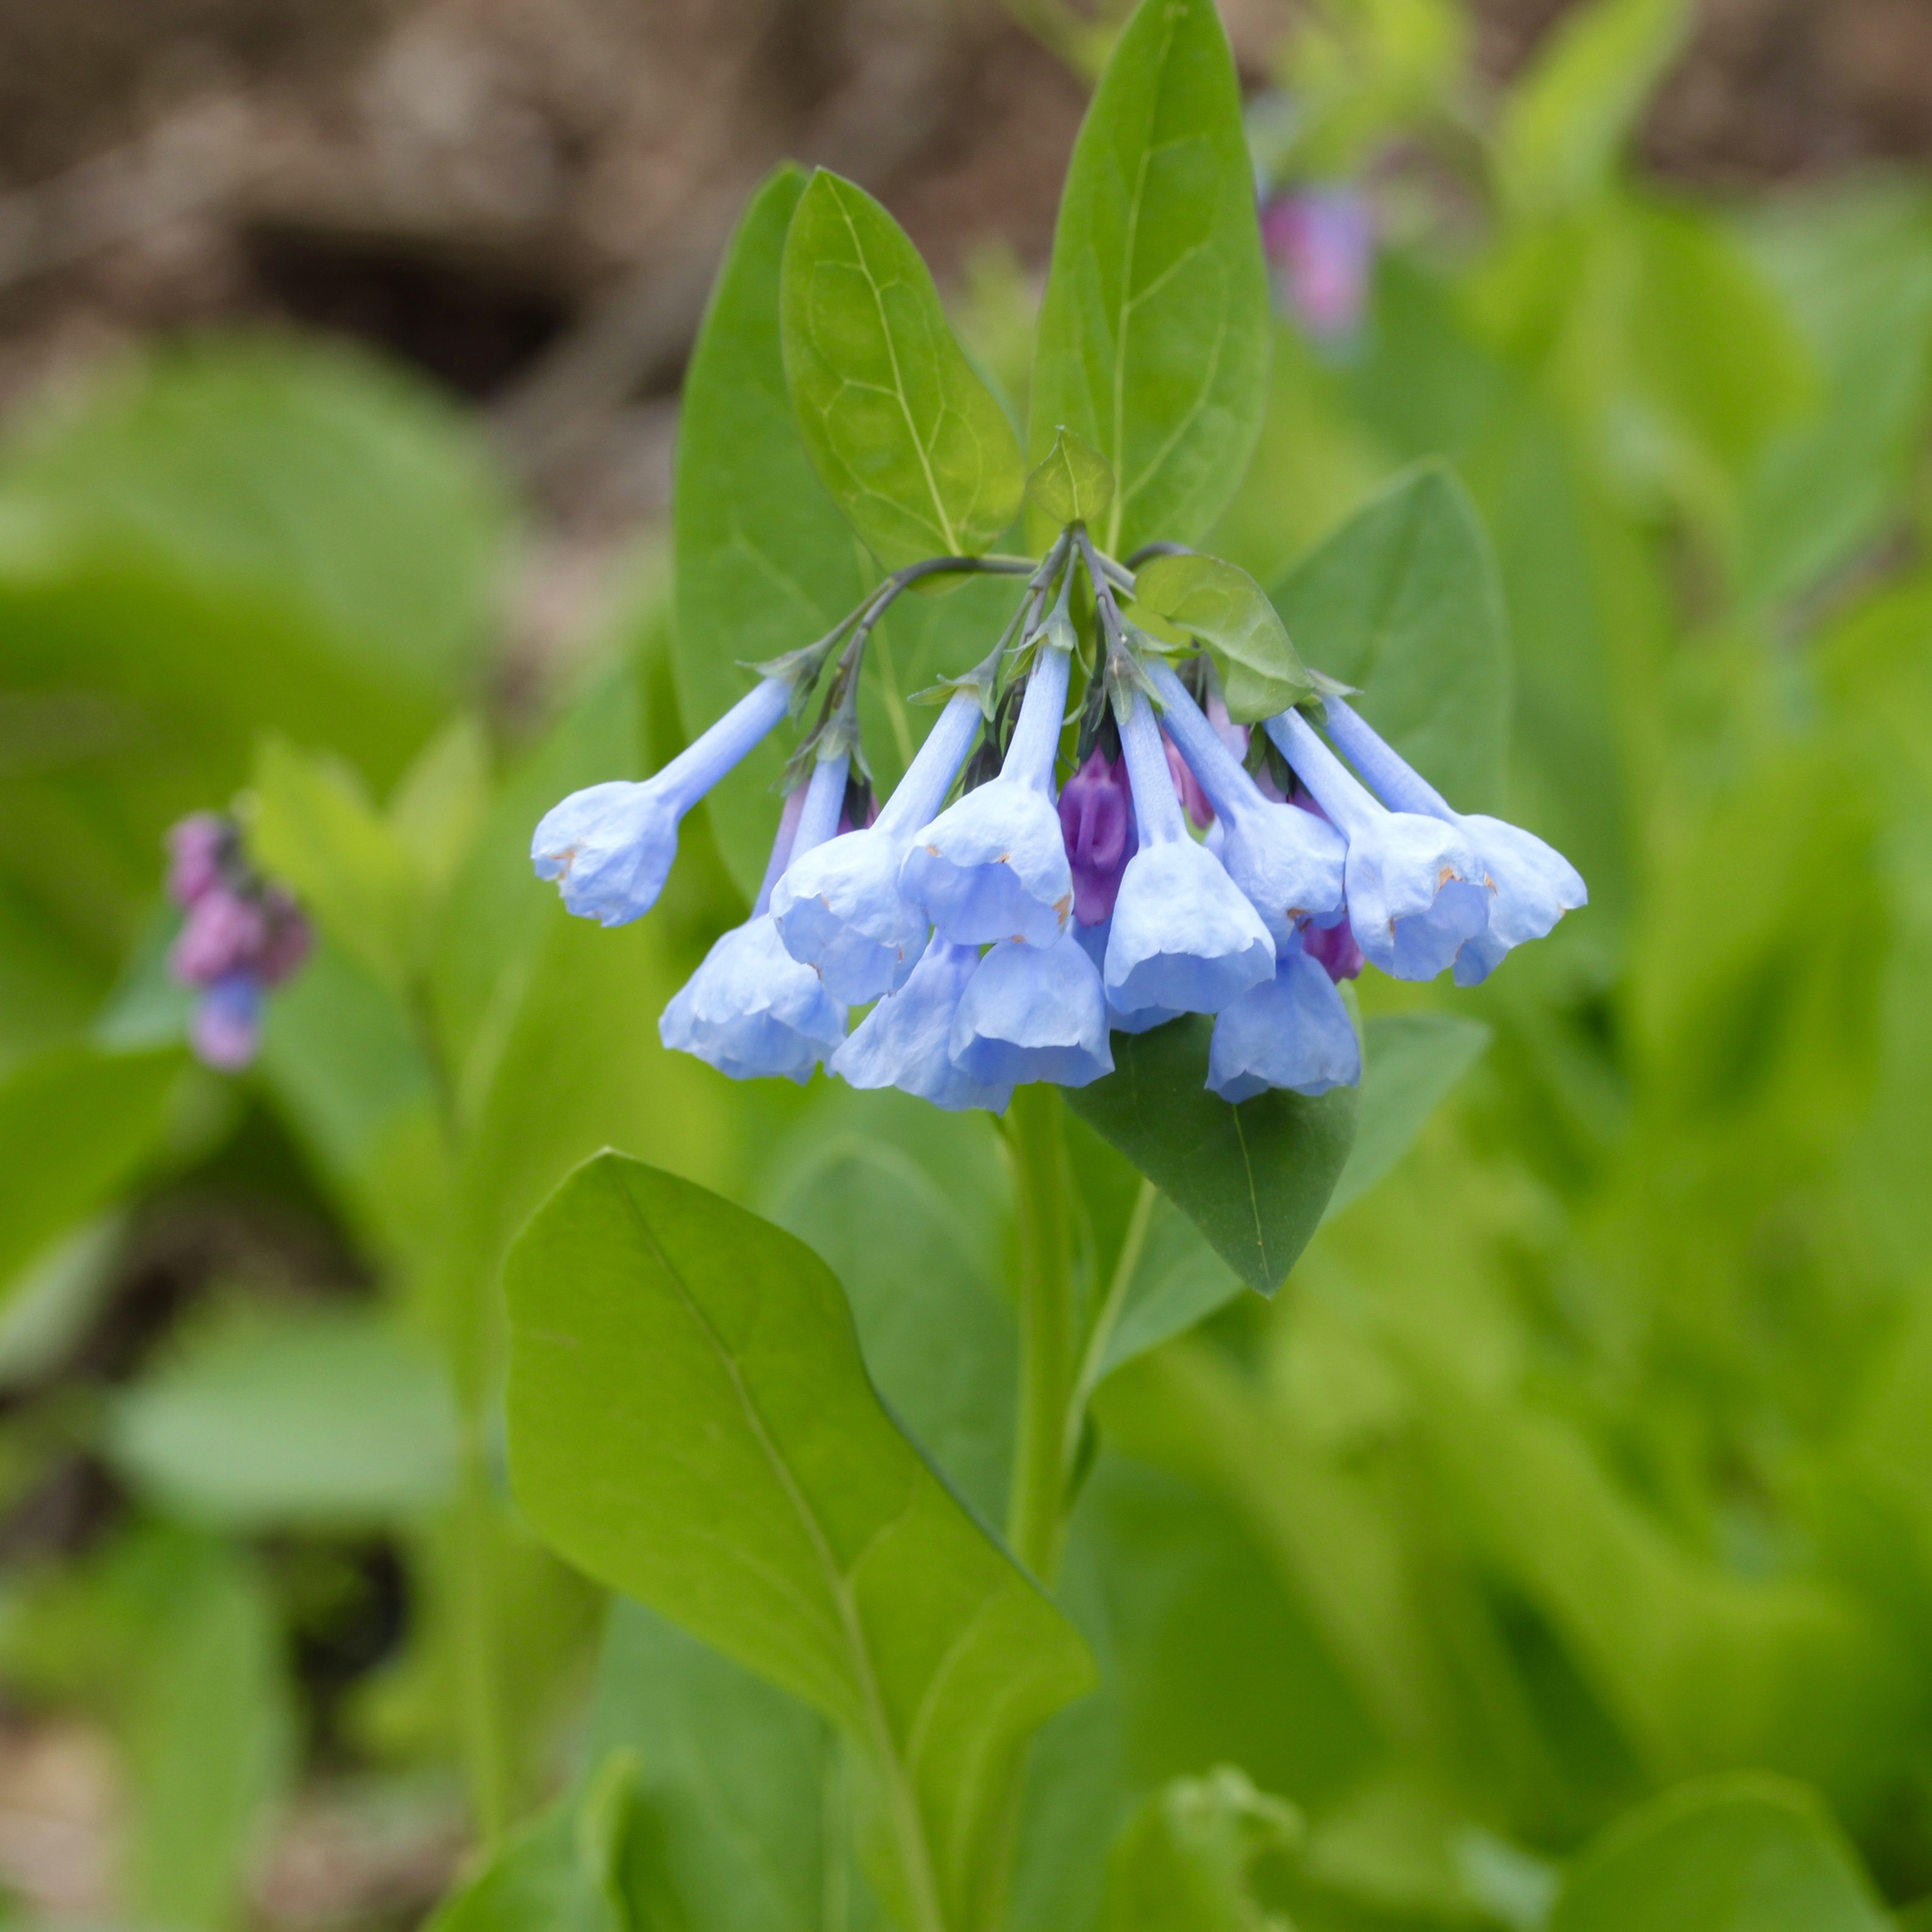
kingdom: Plantae
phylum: Tracheophyta
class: Magnoliopsida
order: Boraginales
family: Boraginaceae
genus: Mertensia
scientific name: Mertensia virginica
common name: Virginia bluebells
